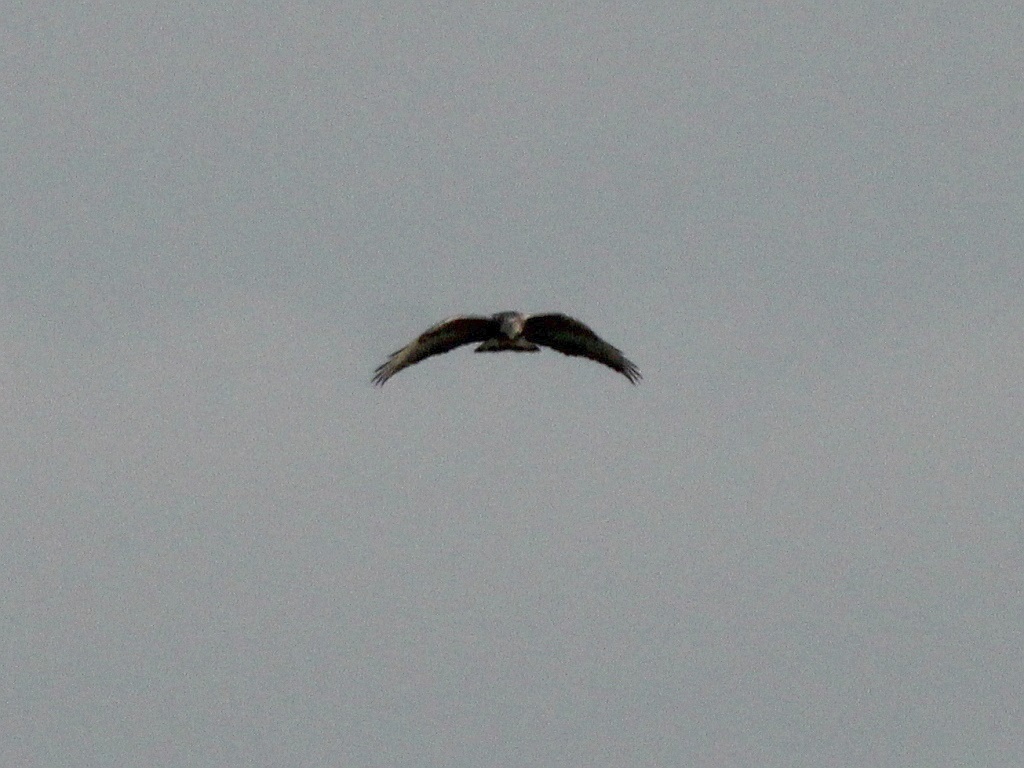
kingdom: Animalia
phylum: Chordata
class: Aves
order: Accipitriformes
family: Accipitridae
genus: Buteo
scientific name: Buteo lagopus
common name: Rough-legged buzzard
